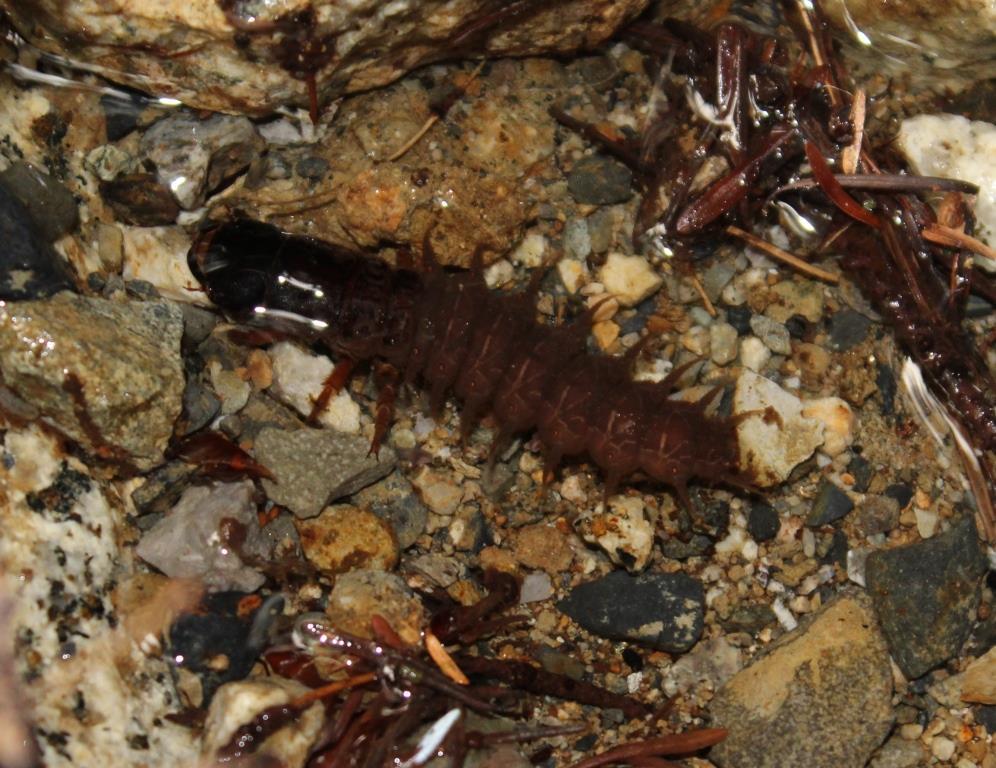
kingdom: Animalia
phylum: Arthropoda
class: Insecta
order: Megaloptera
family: Corydalidae
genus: Dysmicohermes
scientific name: Dysmicohermes disjunctus
